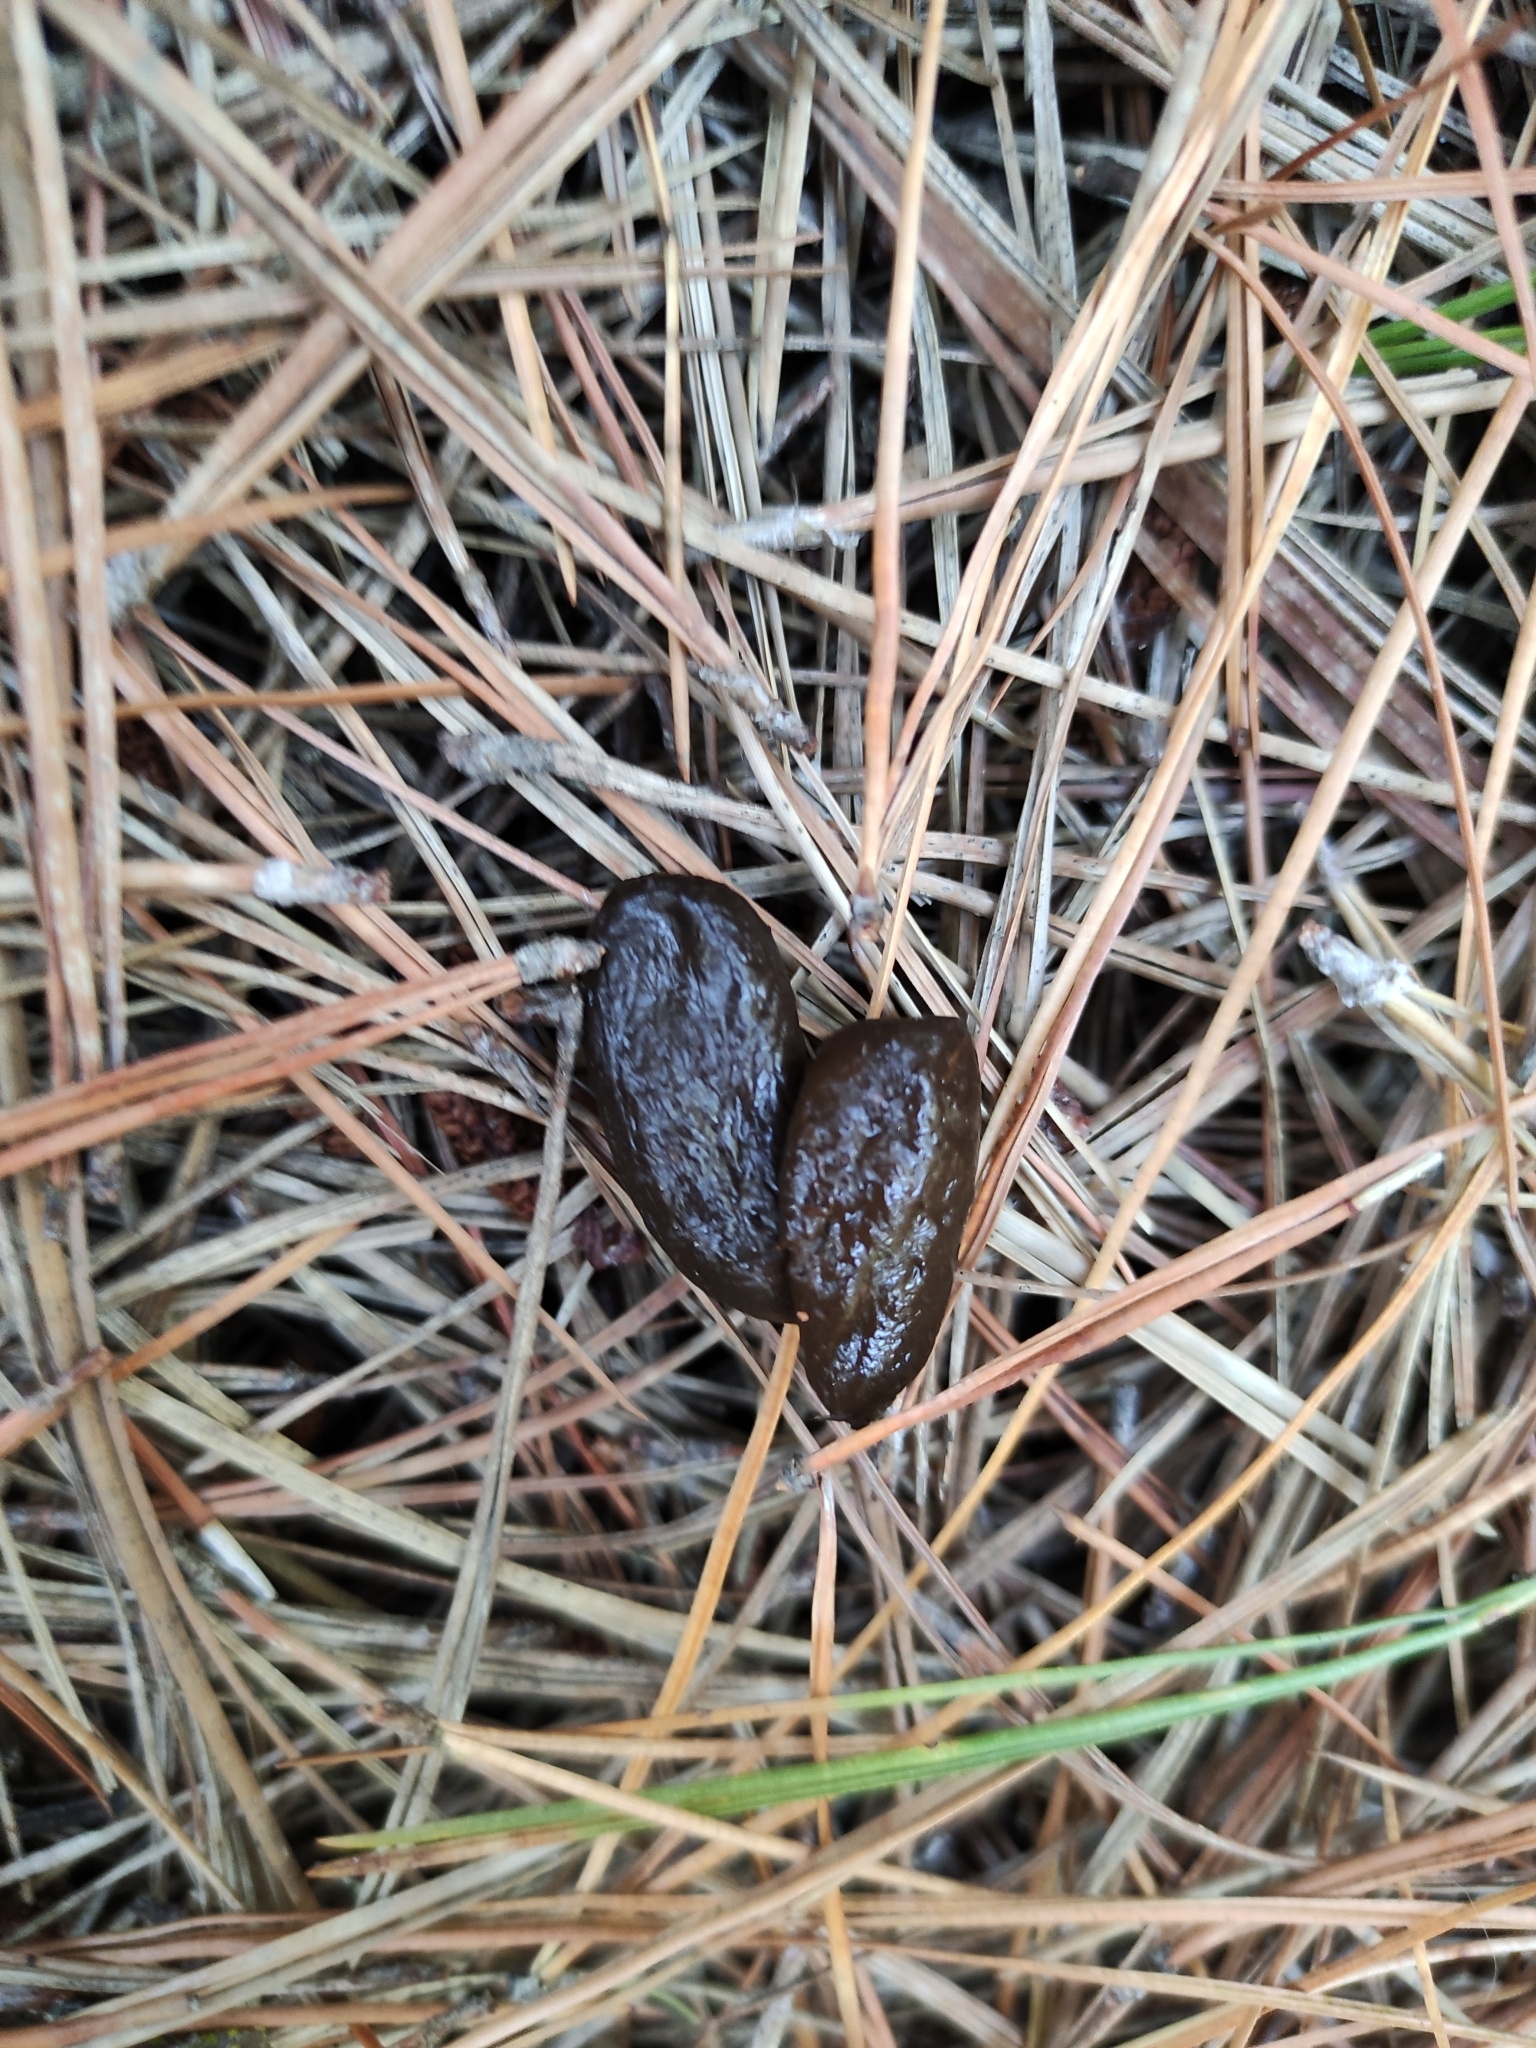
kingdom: Animalia
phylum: Chordata
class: Mammalia
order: Diprotodontia
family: Phalangeridae
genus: Trichosurus
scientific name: Trichosurus vulpecula
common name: Common brushtail
